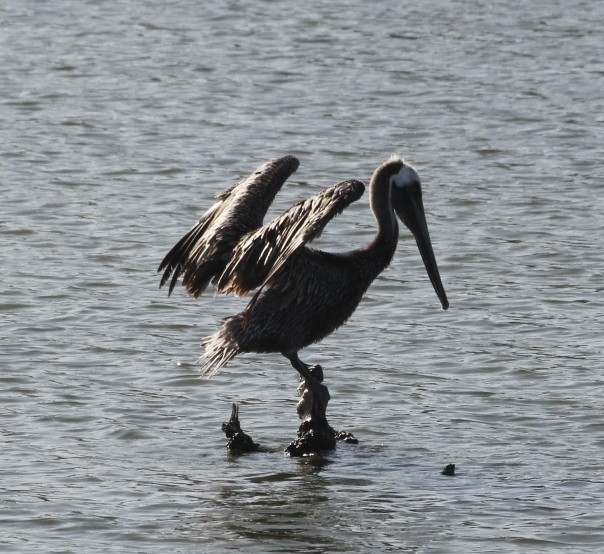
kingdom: Animalia
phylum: Chordata
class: Aves
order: Pelecaniformes
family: Pelecanidae
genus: Pelecanus
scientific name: Pelecanus occidentalis
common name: Brown pelican
